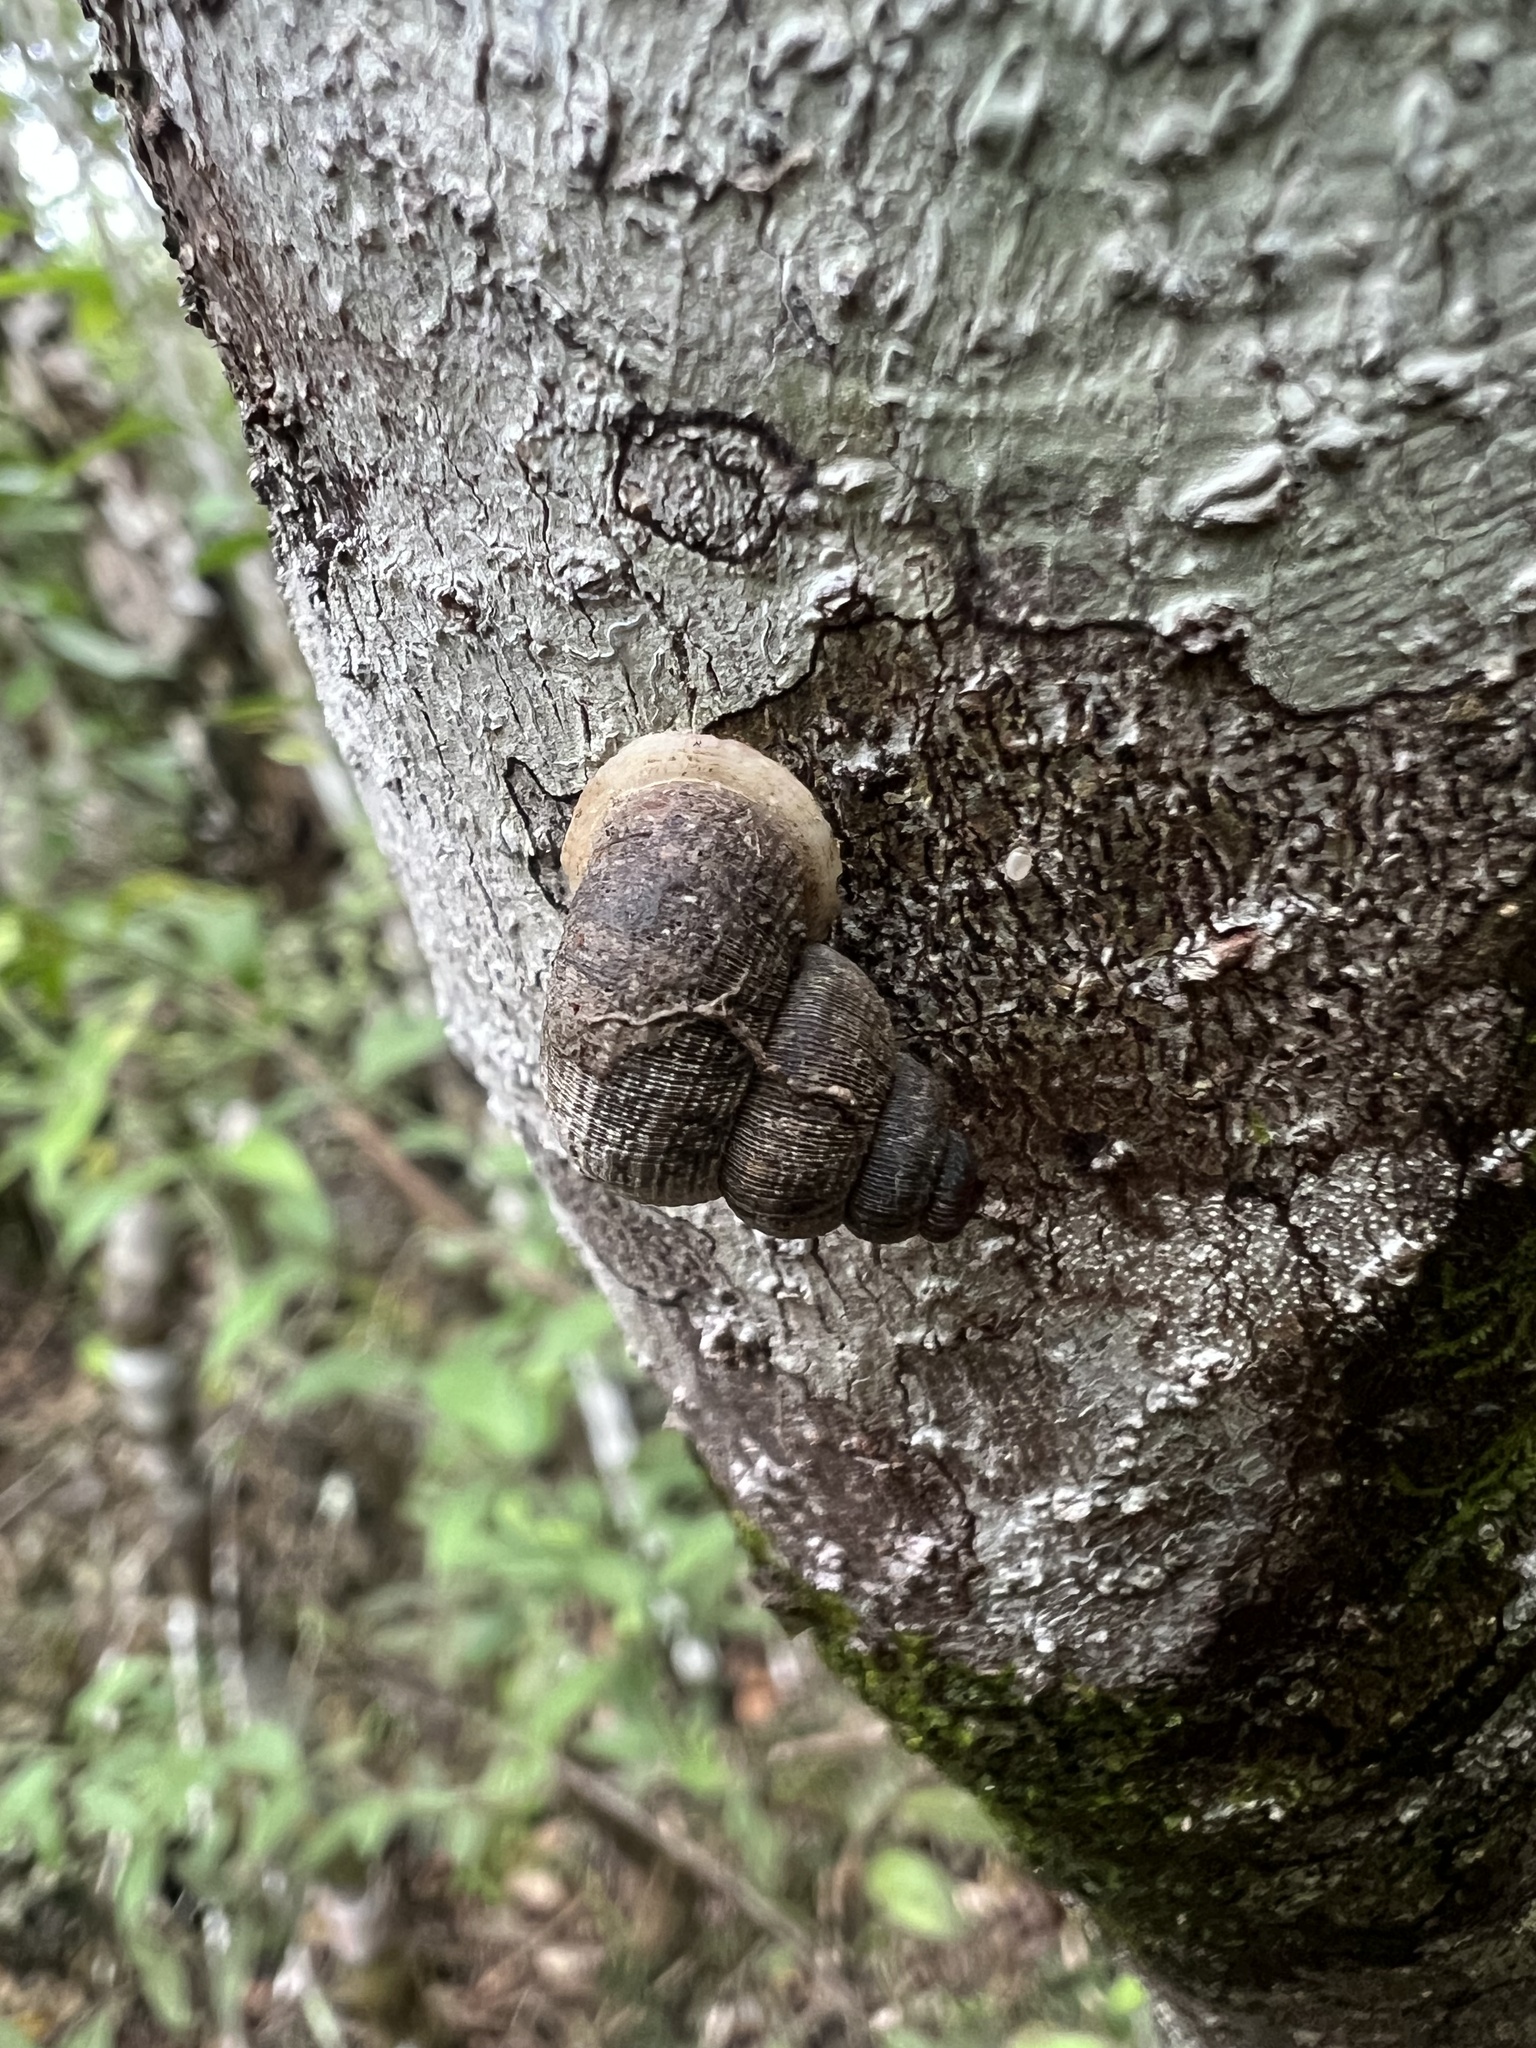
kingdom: Animalia
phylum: Mollusca
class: Gastropoda
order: Littorinimorpha
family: Annulariidae
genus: Tudorisca
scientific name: Tudorisca rosenbergiana
